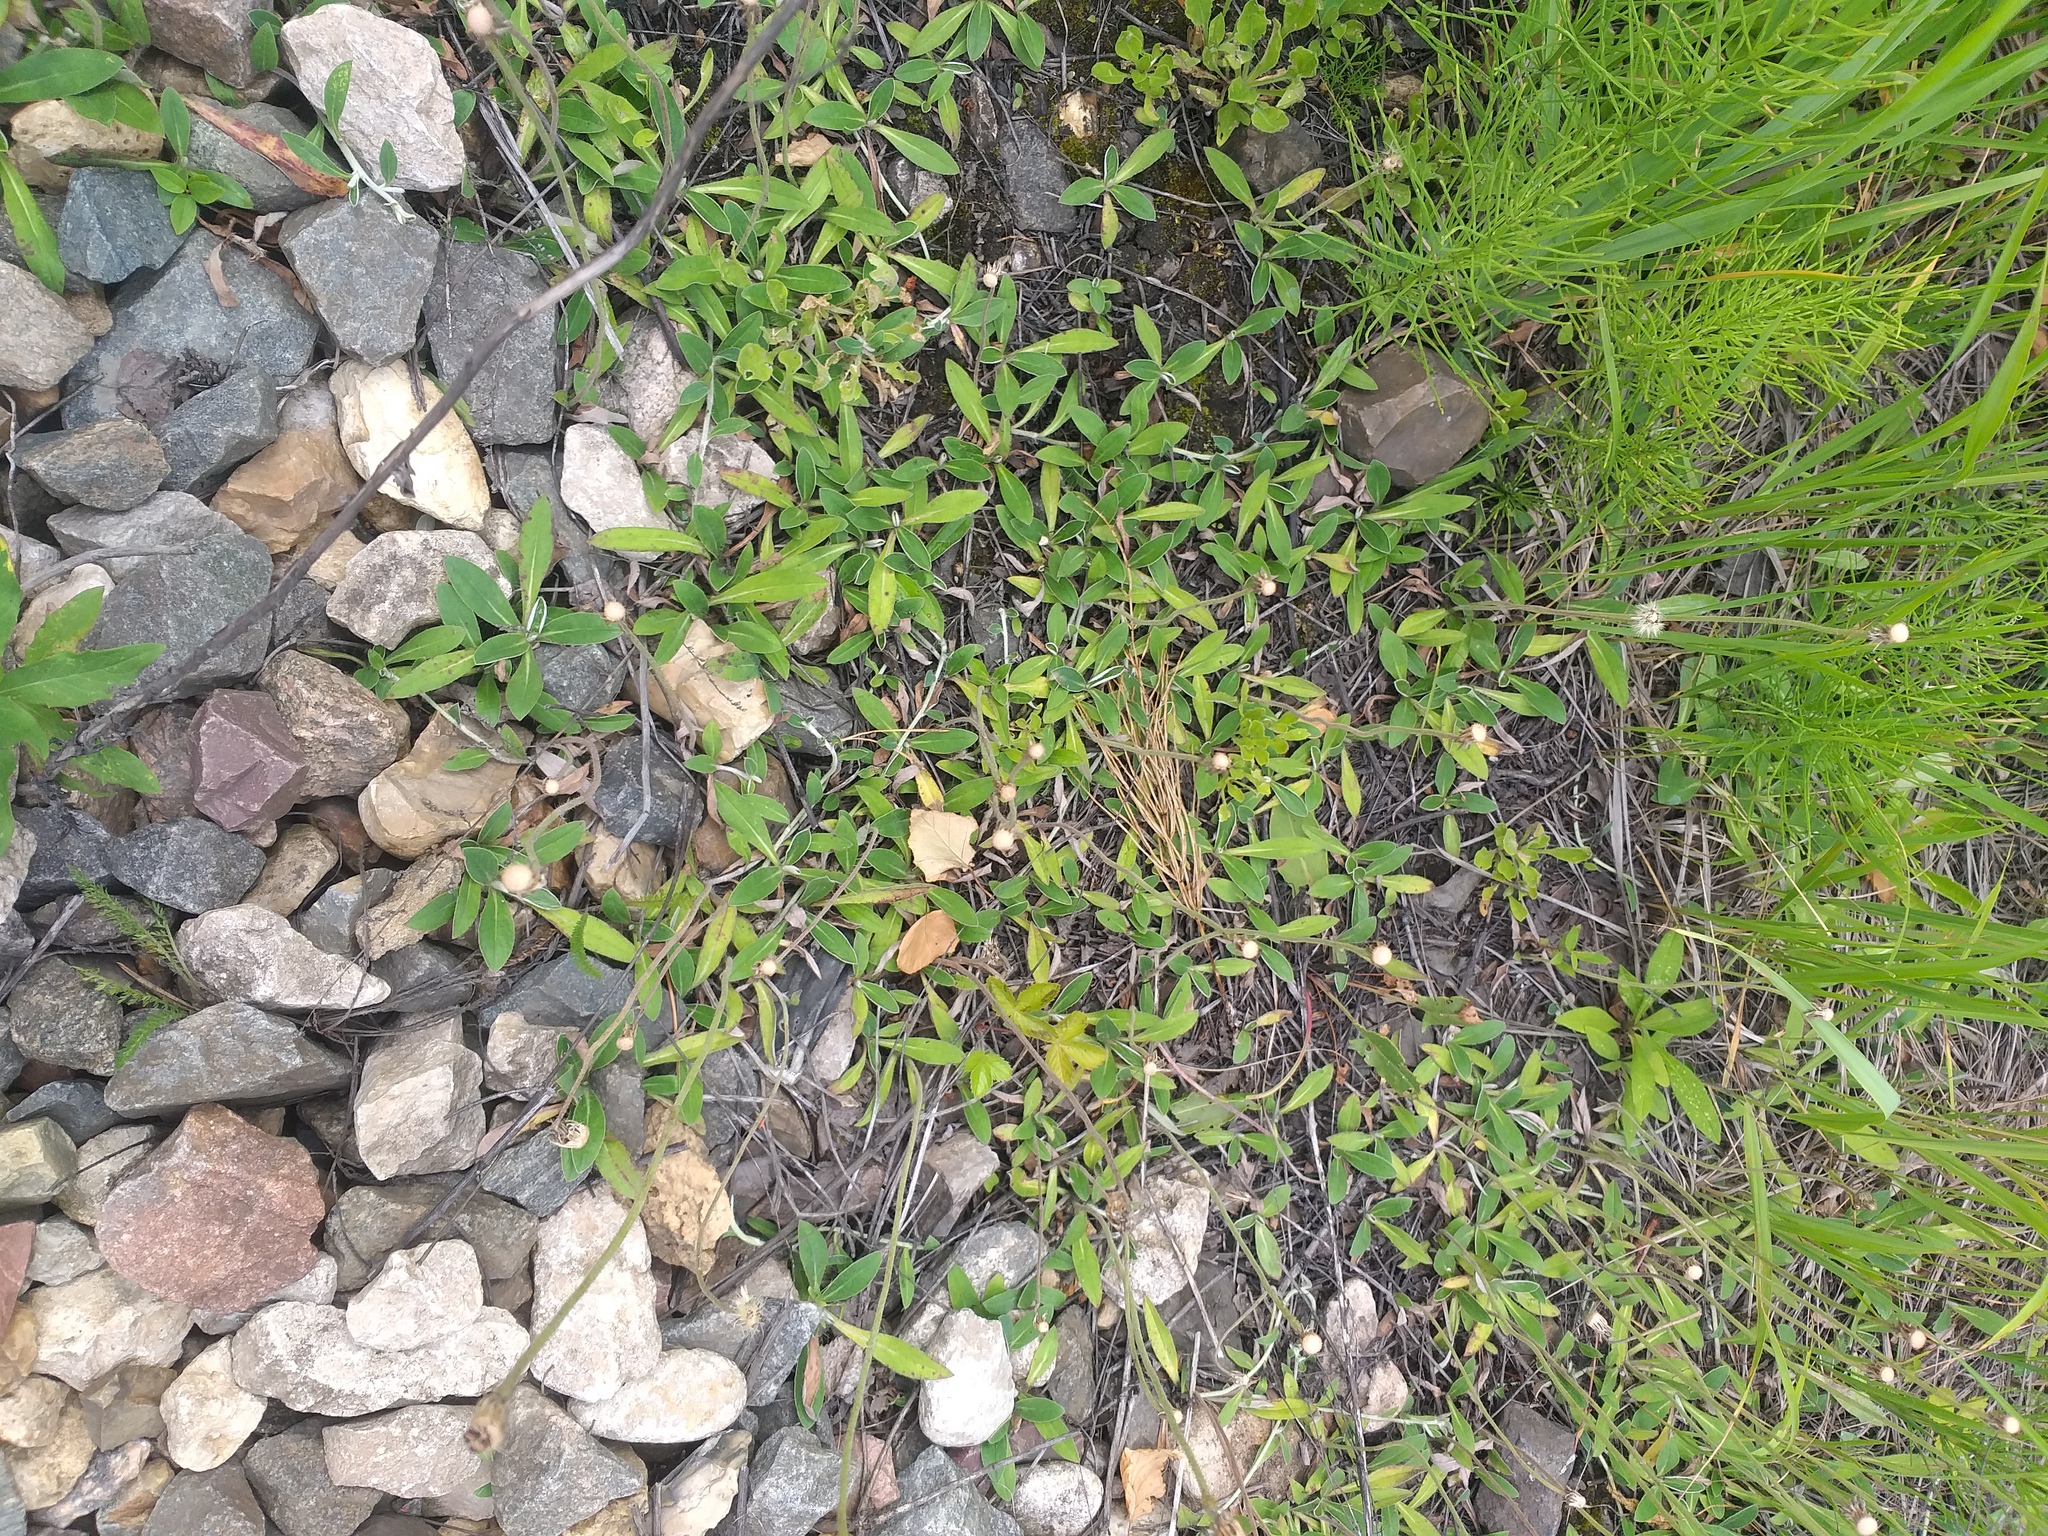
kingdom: Plantae
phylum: Tracheophyta
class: Magnoliopsida
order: Asterales
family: Asteraceae
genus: Pilosella
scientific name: Pilosella officinarum
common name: Mouse-ear hawkweed
